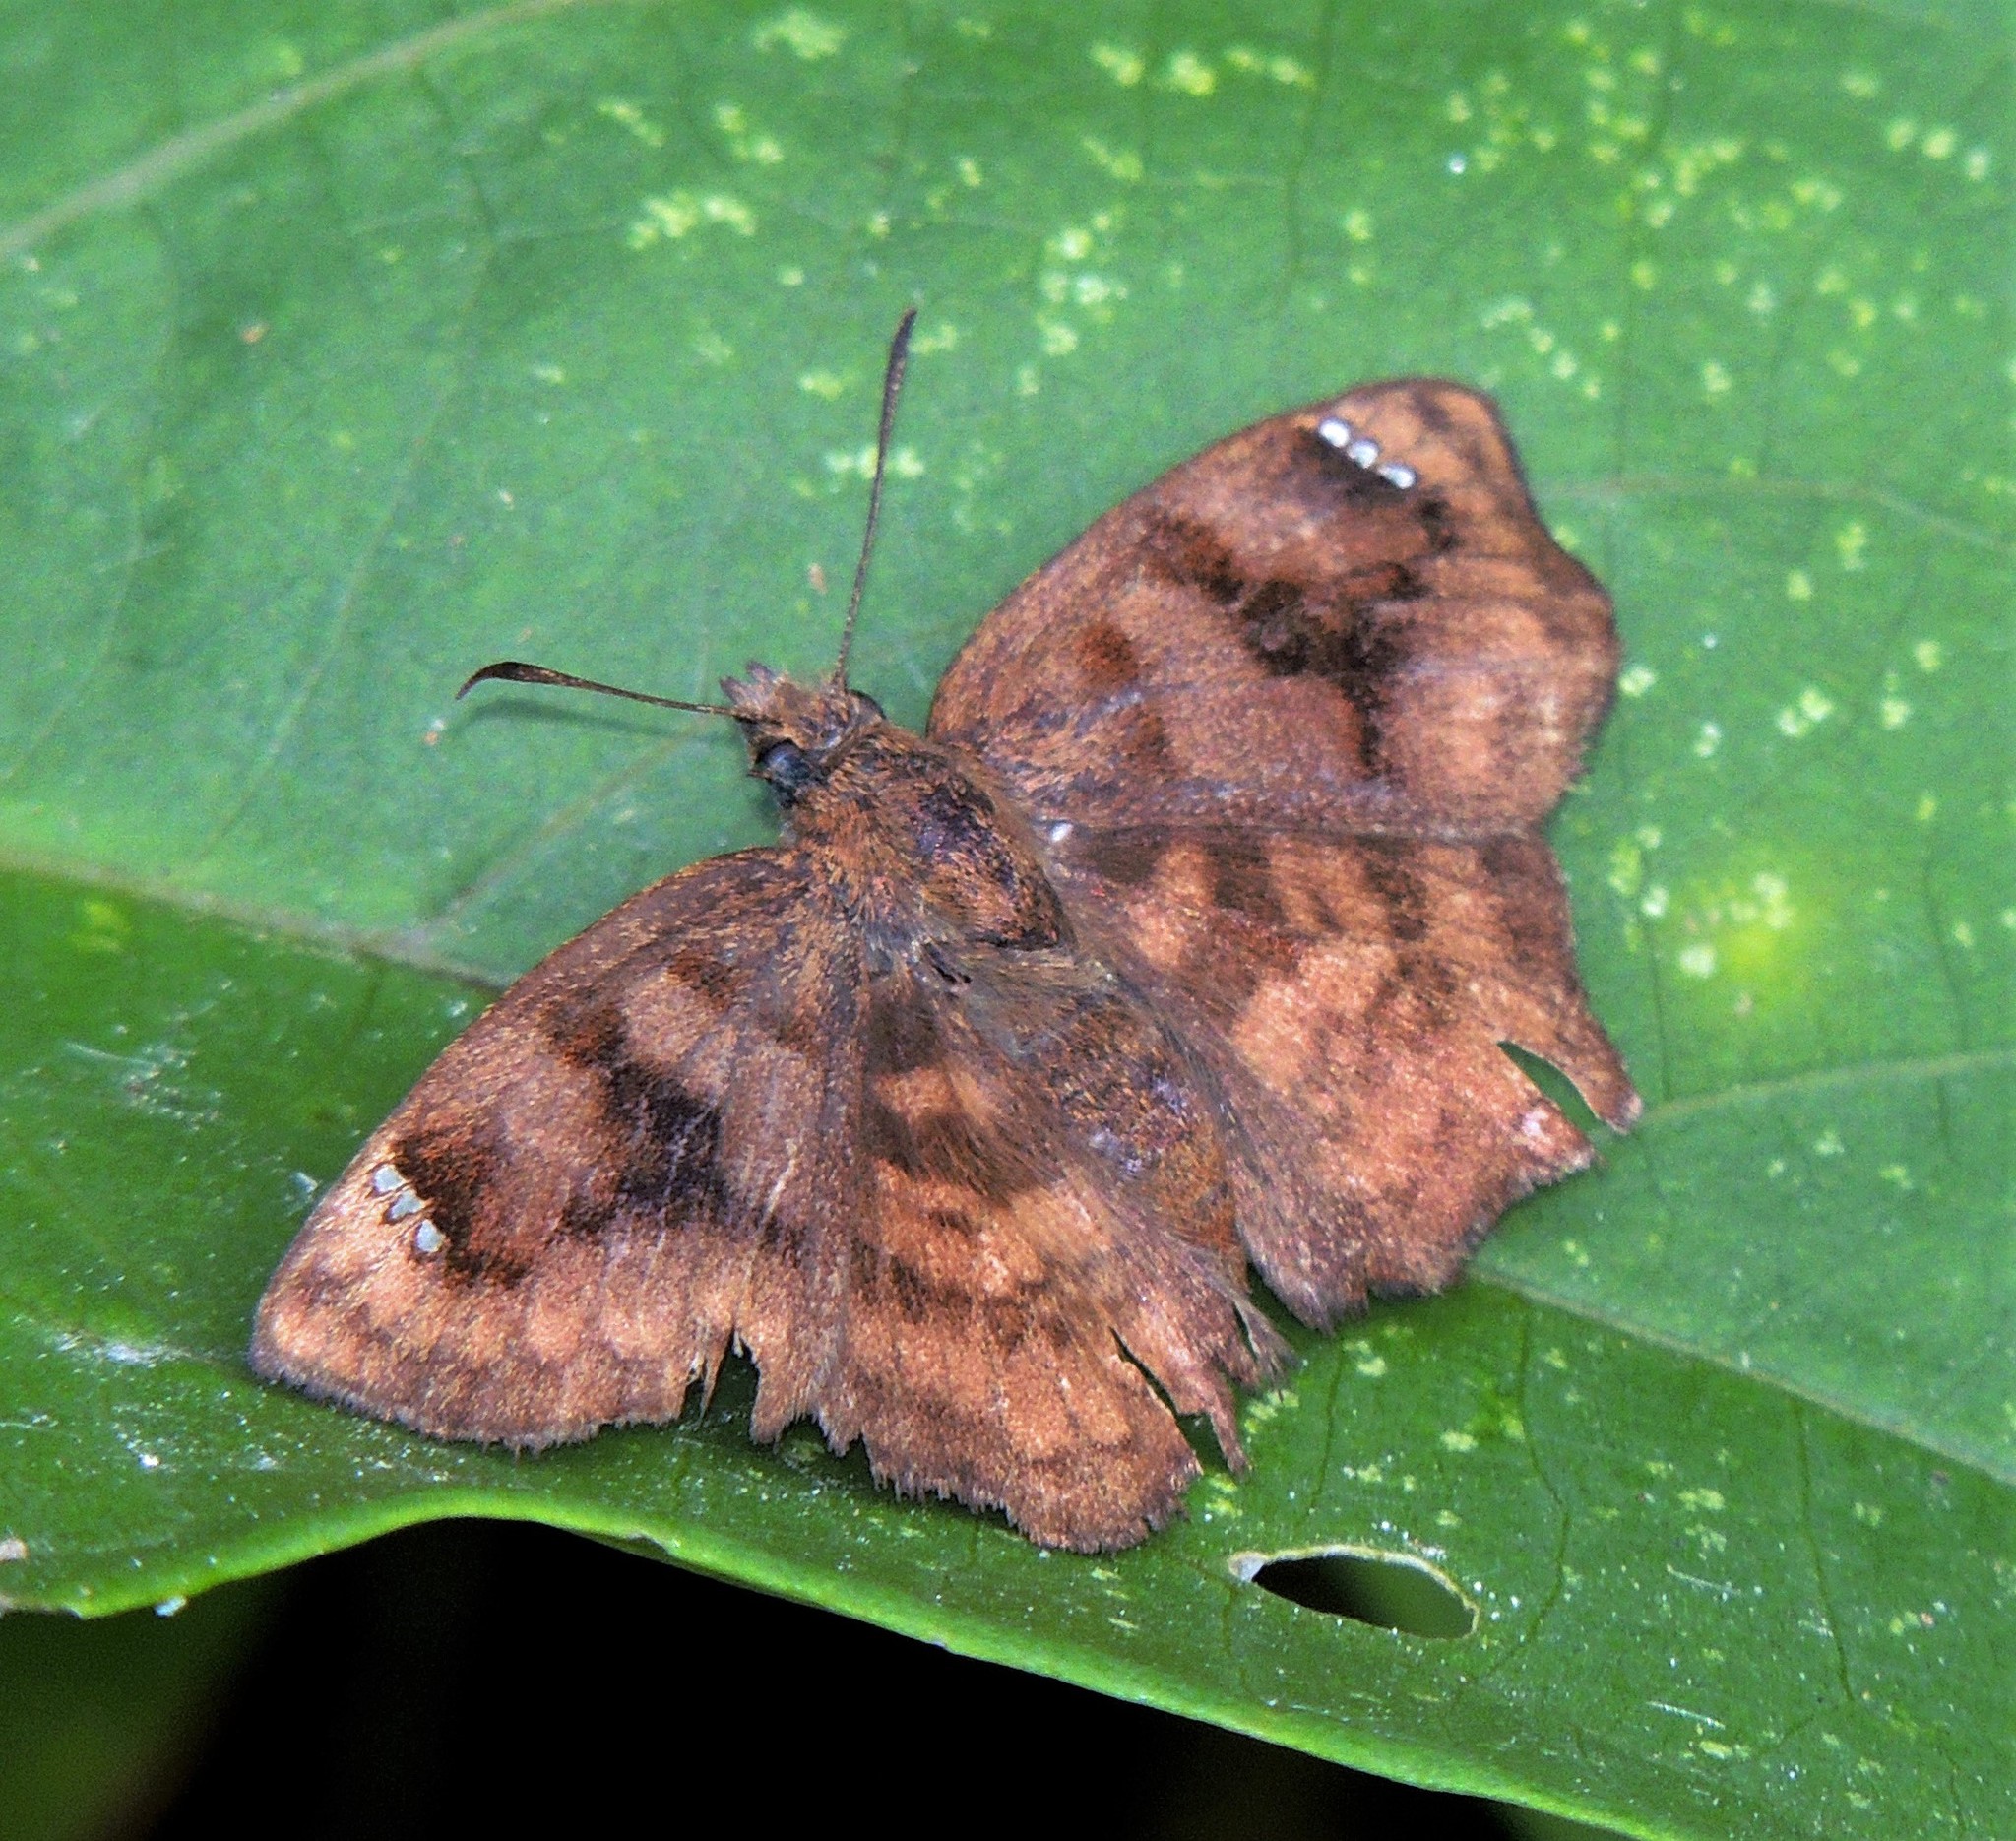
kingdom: Animalia
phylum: Arthropoda
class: Insecta
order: Lepidoptera
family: Hesperiidae
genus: Nisoniades
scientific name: Nisoniades macarius
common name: Macarius tufted-skipper
